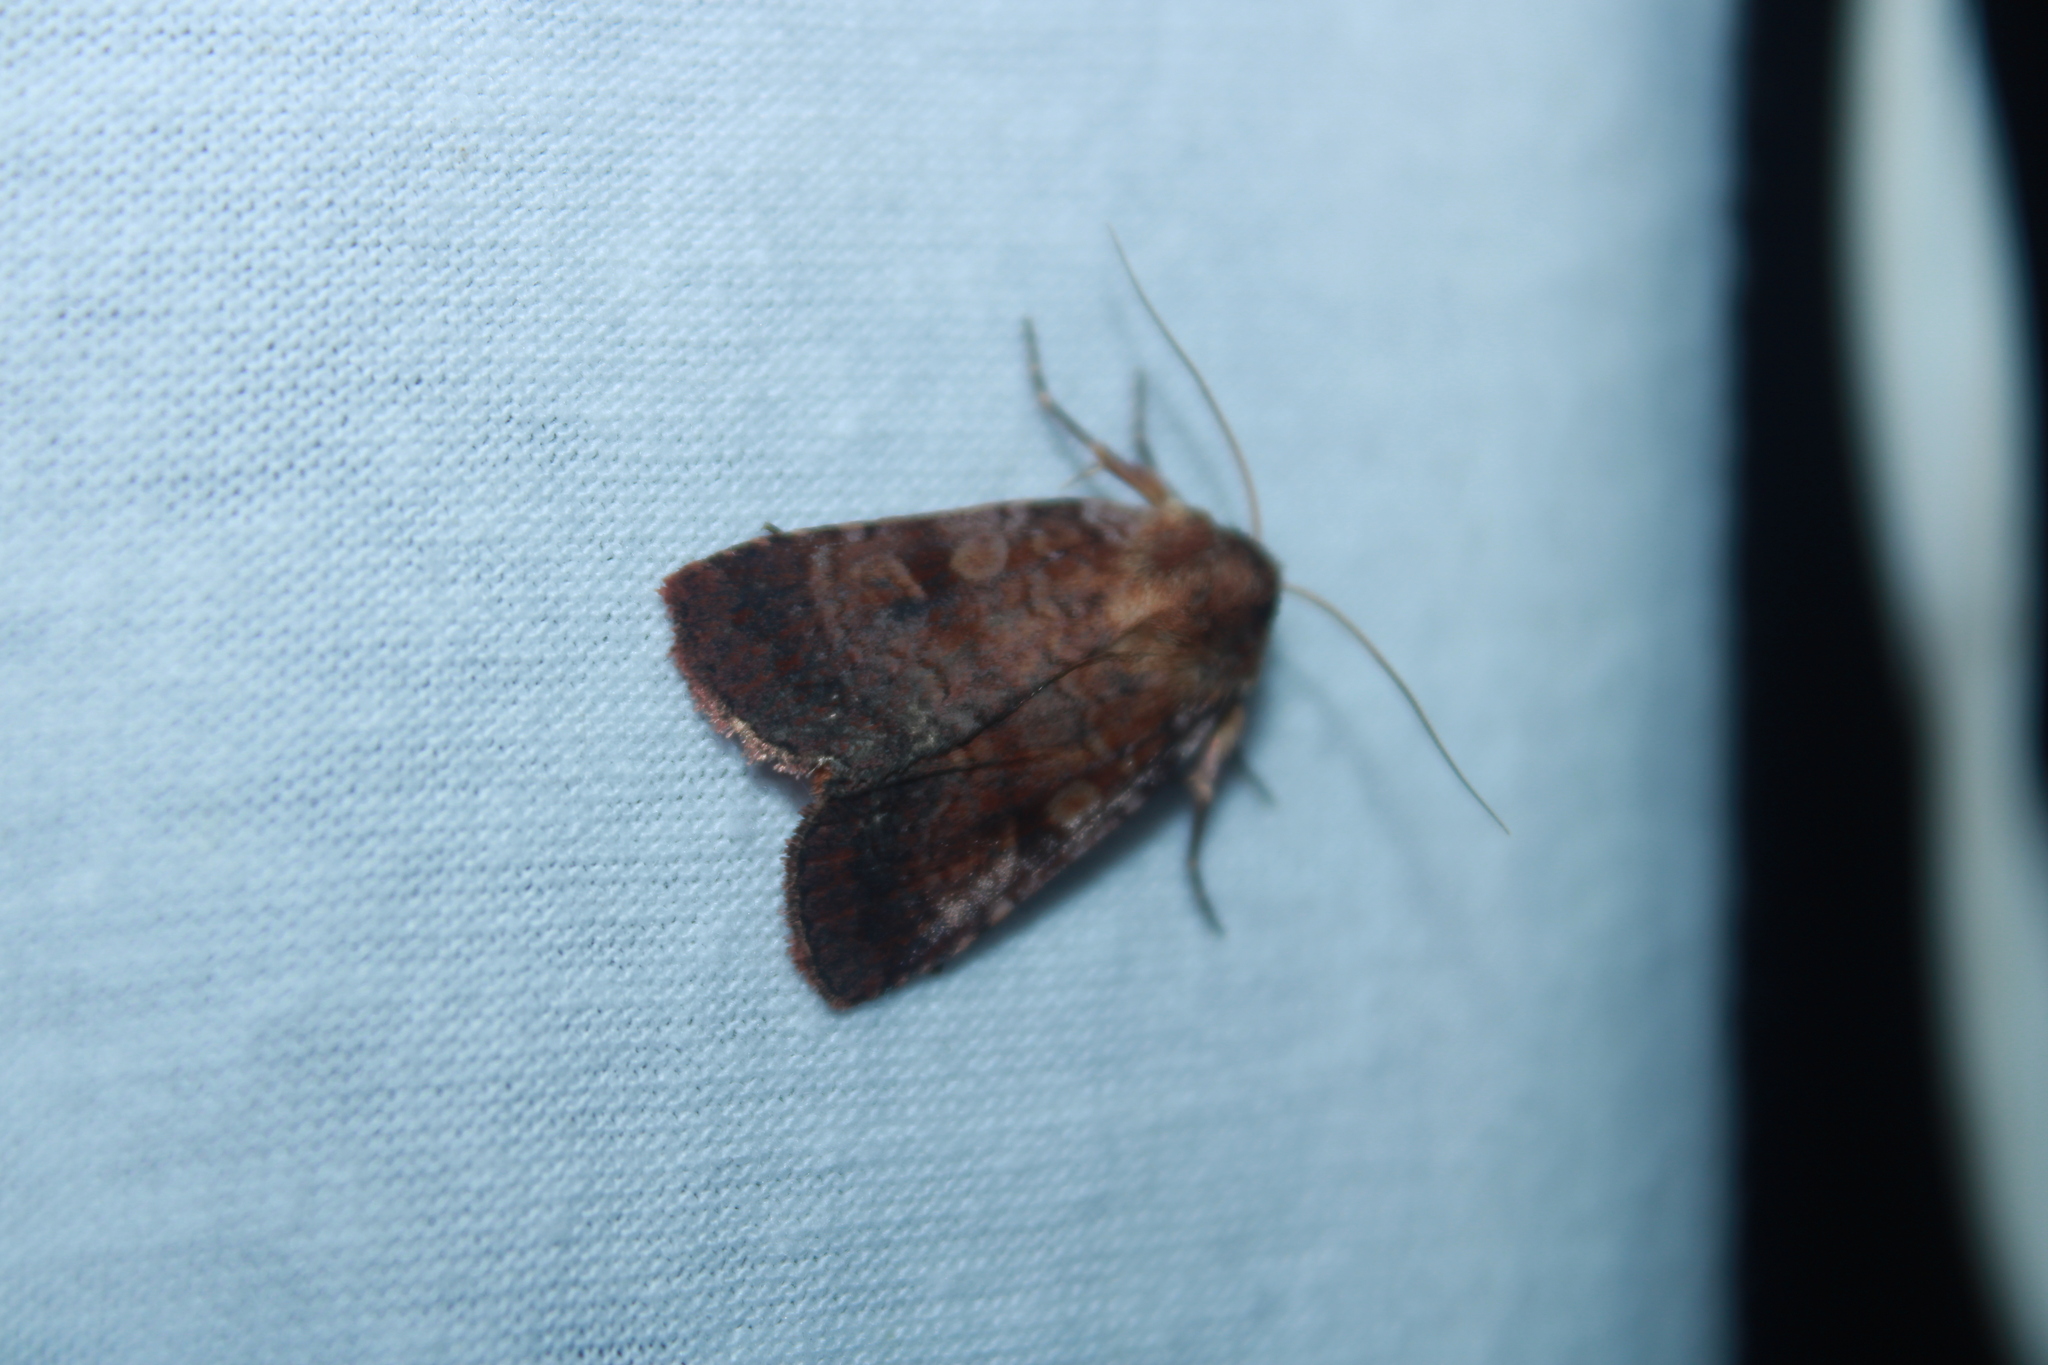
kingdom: Animalia
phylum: Arthropoda
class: Insecta
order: Lepidoptera
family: Noctuidae
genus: Lycophotia
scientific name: Lycophotia phyllophora
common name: Lycophotia moth
